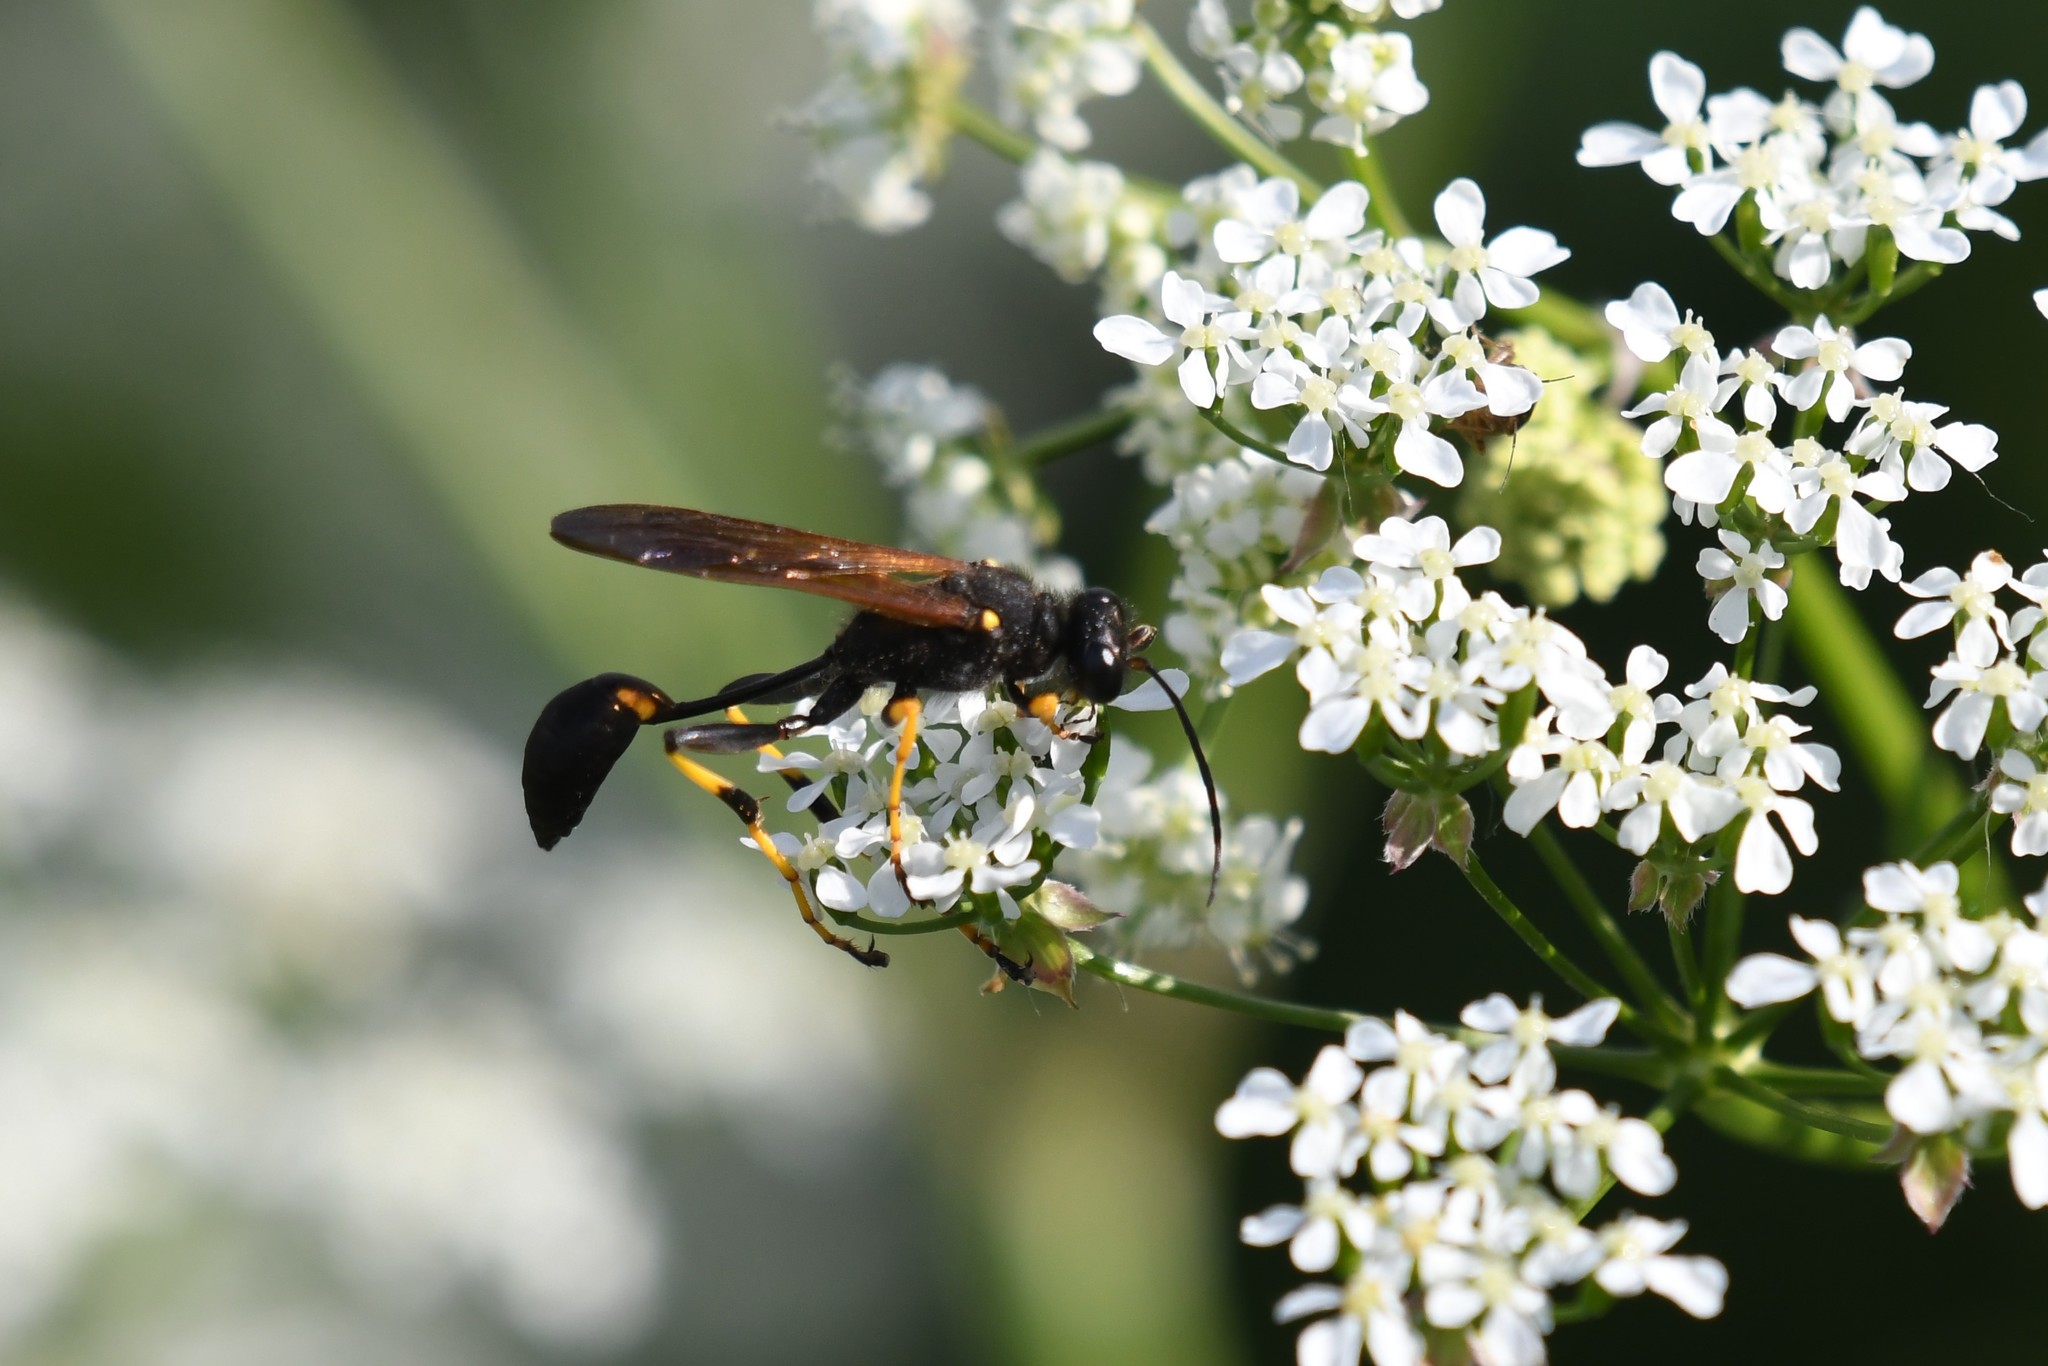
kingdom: Animalia
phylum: Arthropoda
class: Insecta
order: Hymenoptera
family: Sphecidae
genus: Sceliphron
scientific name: Sceliphron caementarium
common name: Mud dauber
